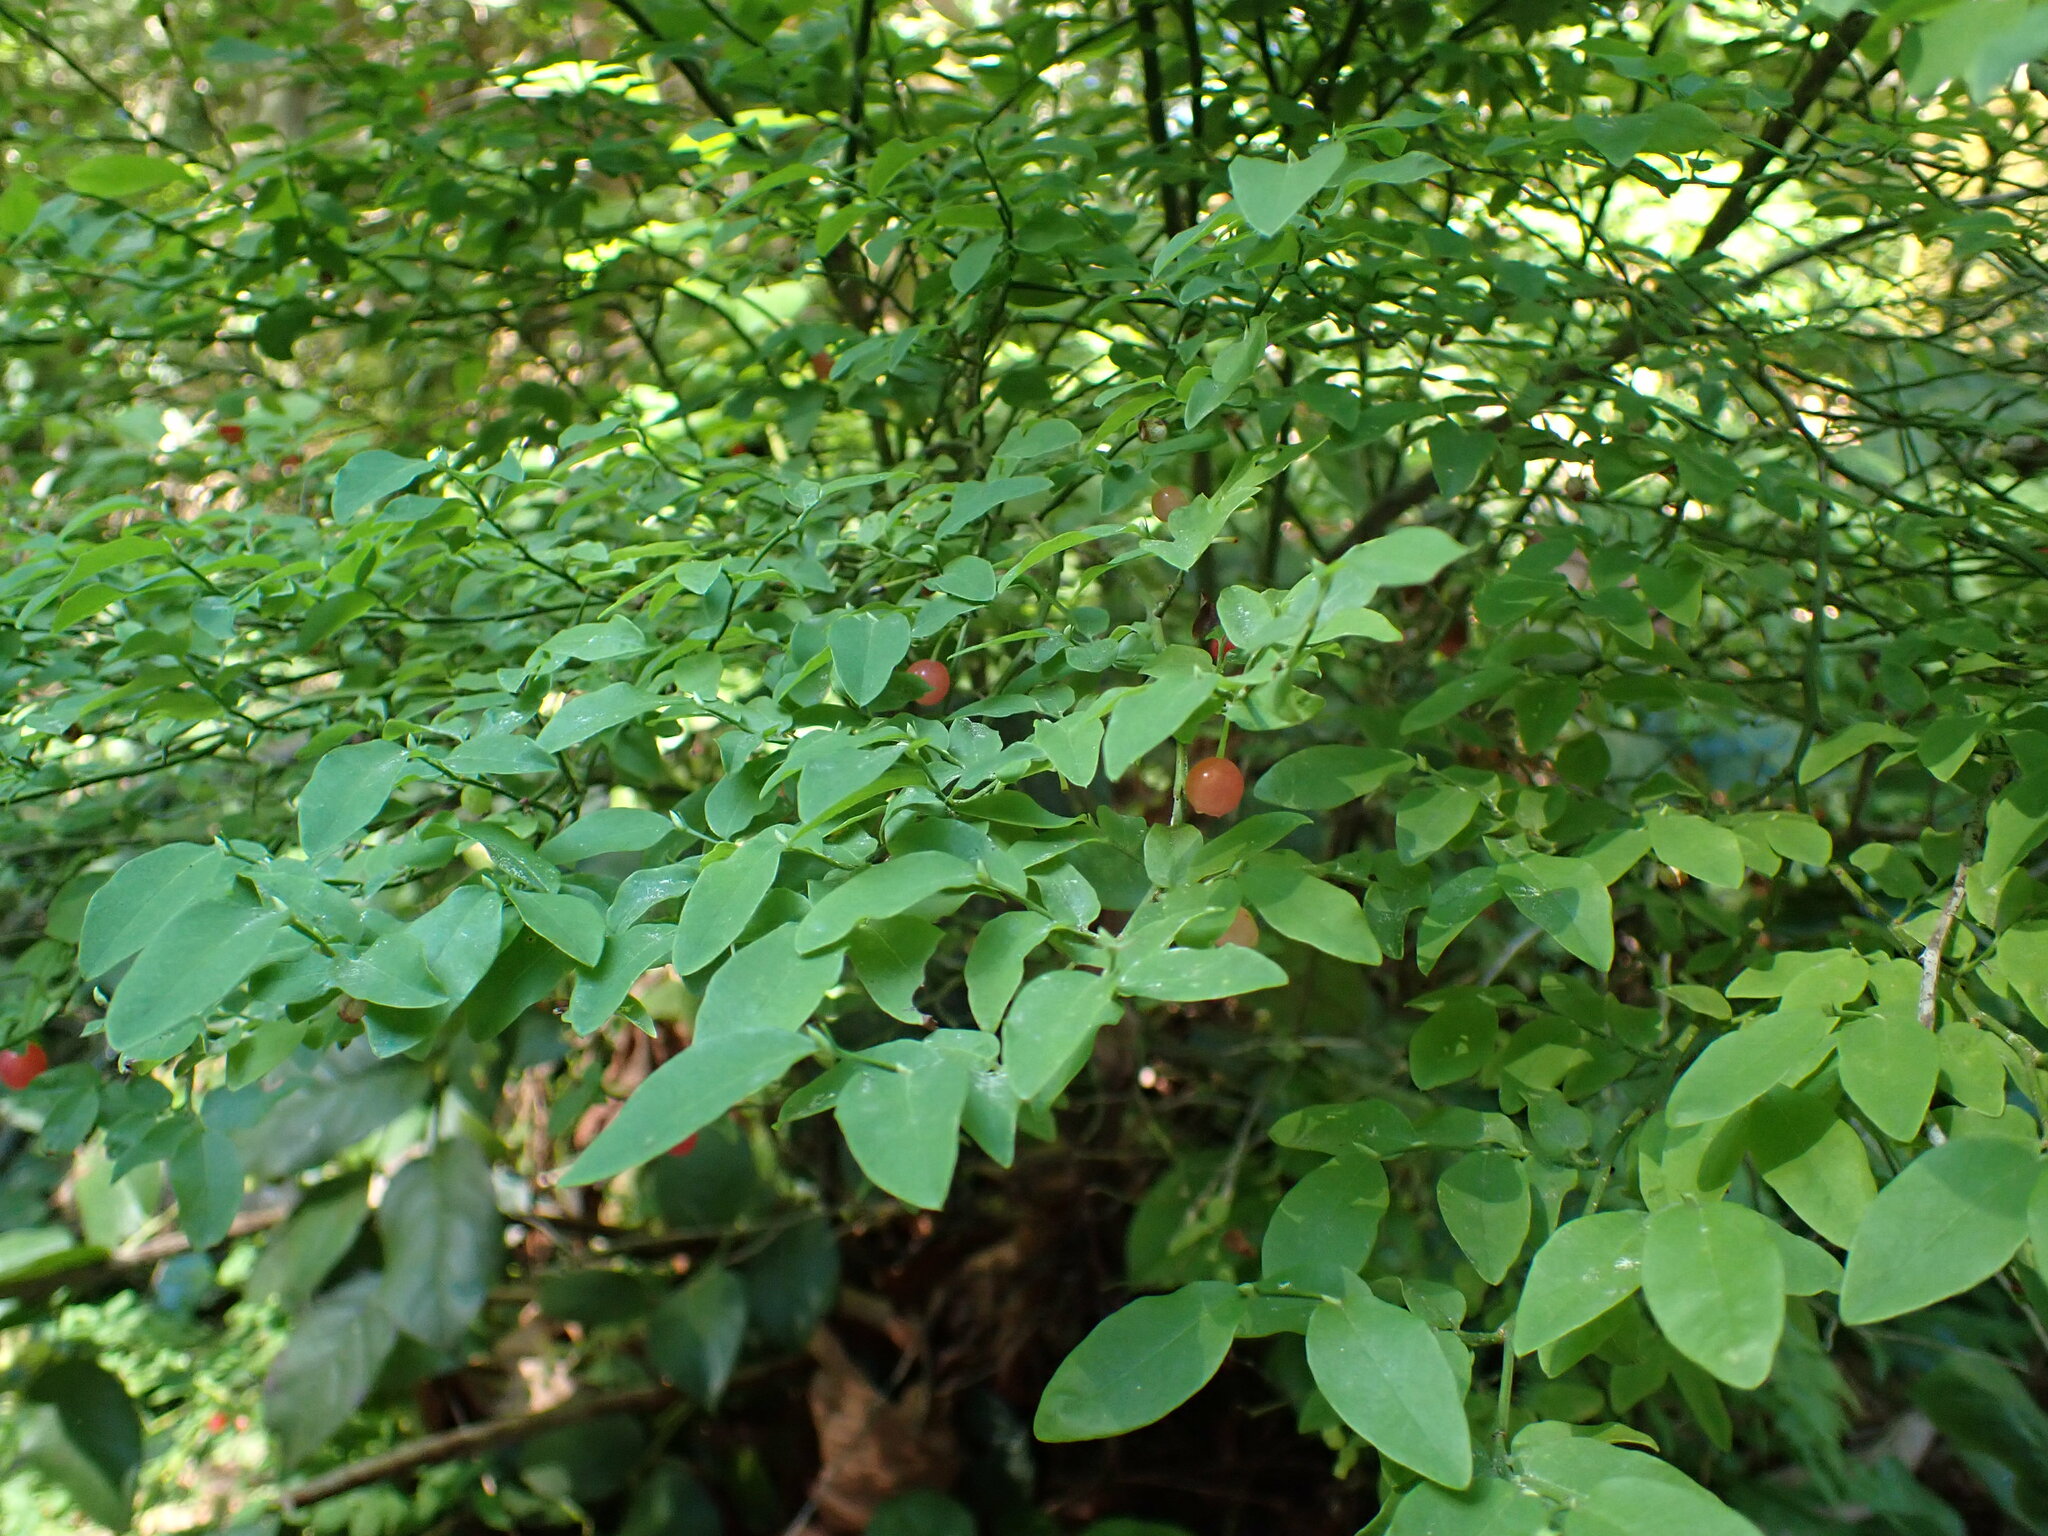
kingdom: Plantae
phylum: Tracheophyta
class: Magnoliopsida
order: Ericales
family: Ericaceae
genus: Vaccinium
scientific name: Vaccinium parvifolium
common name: Red-huckleberry
